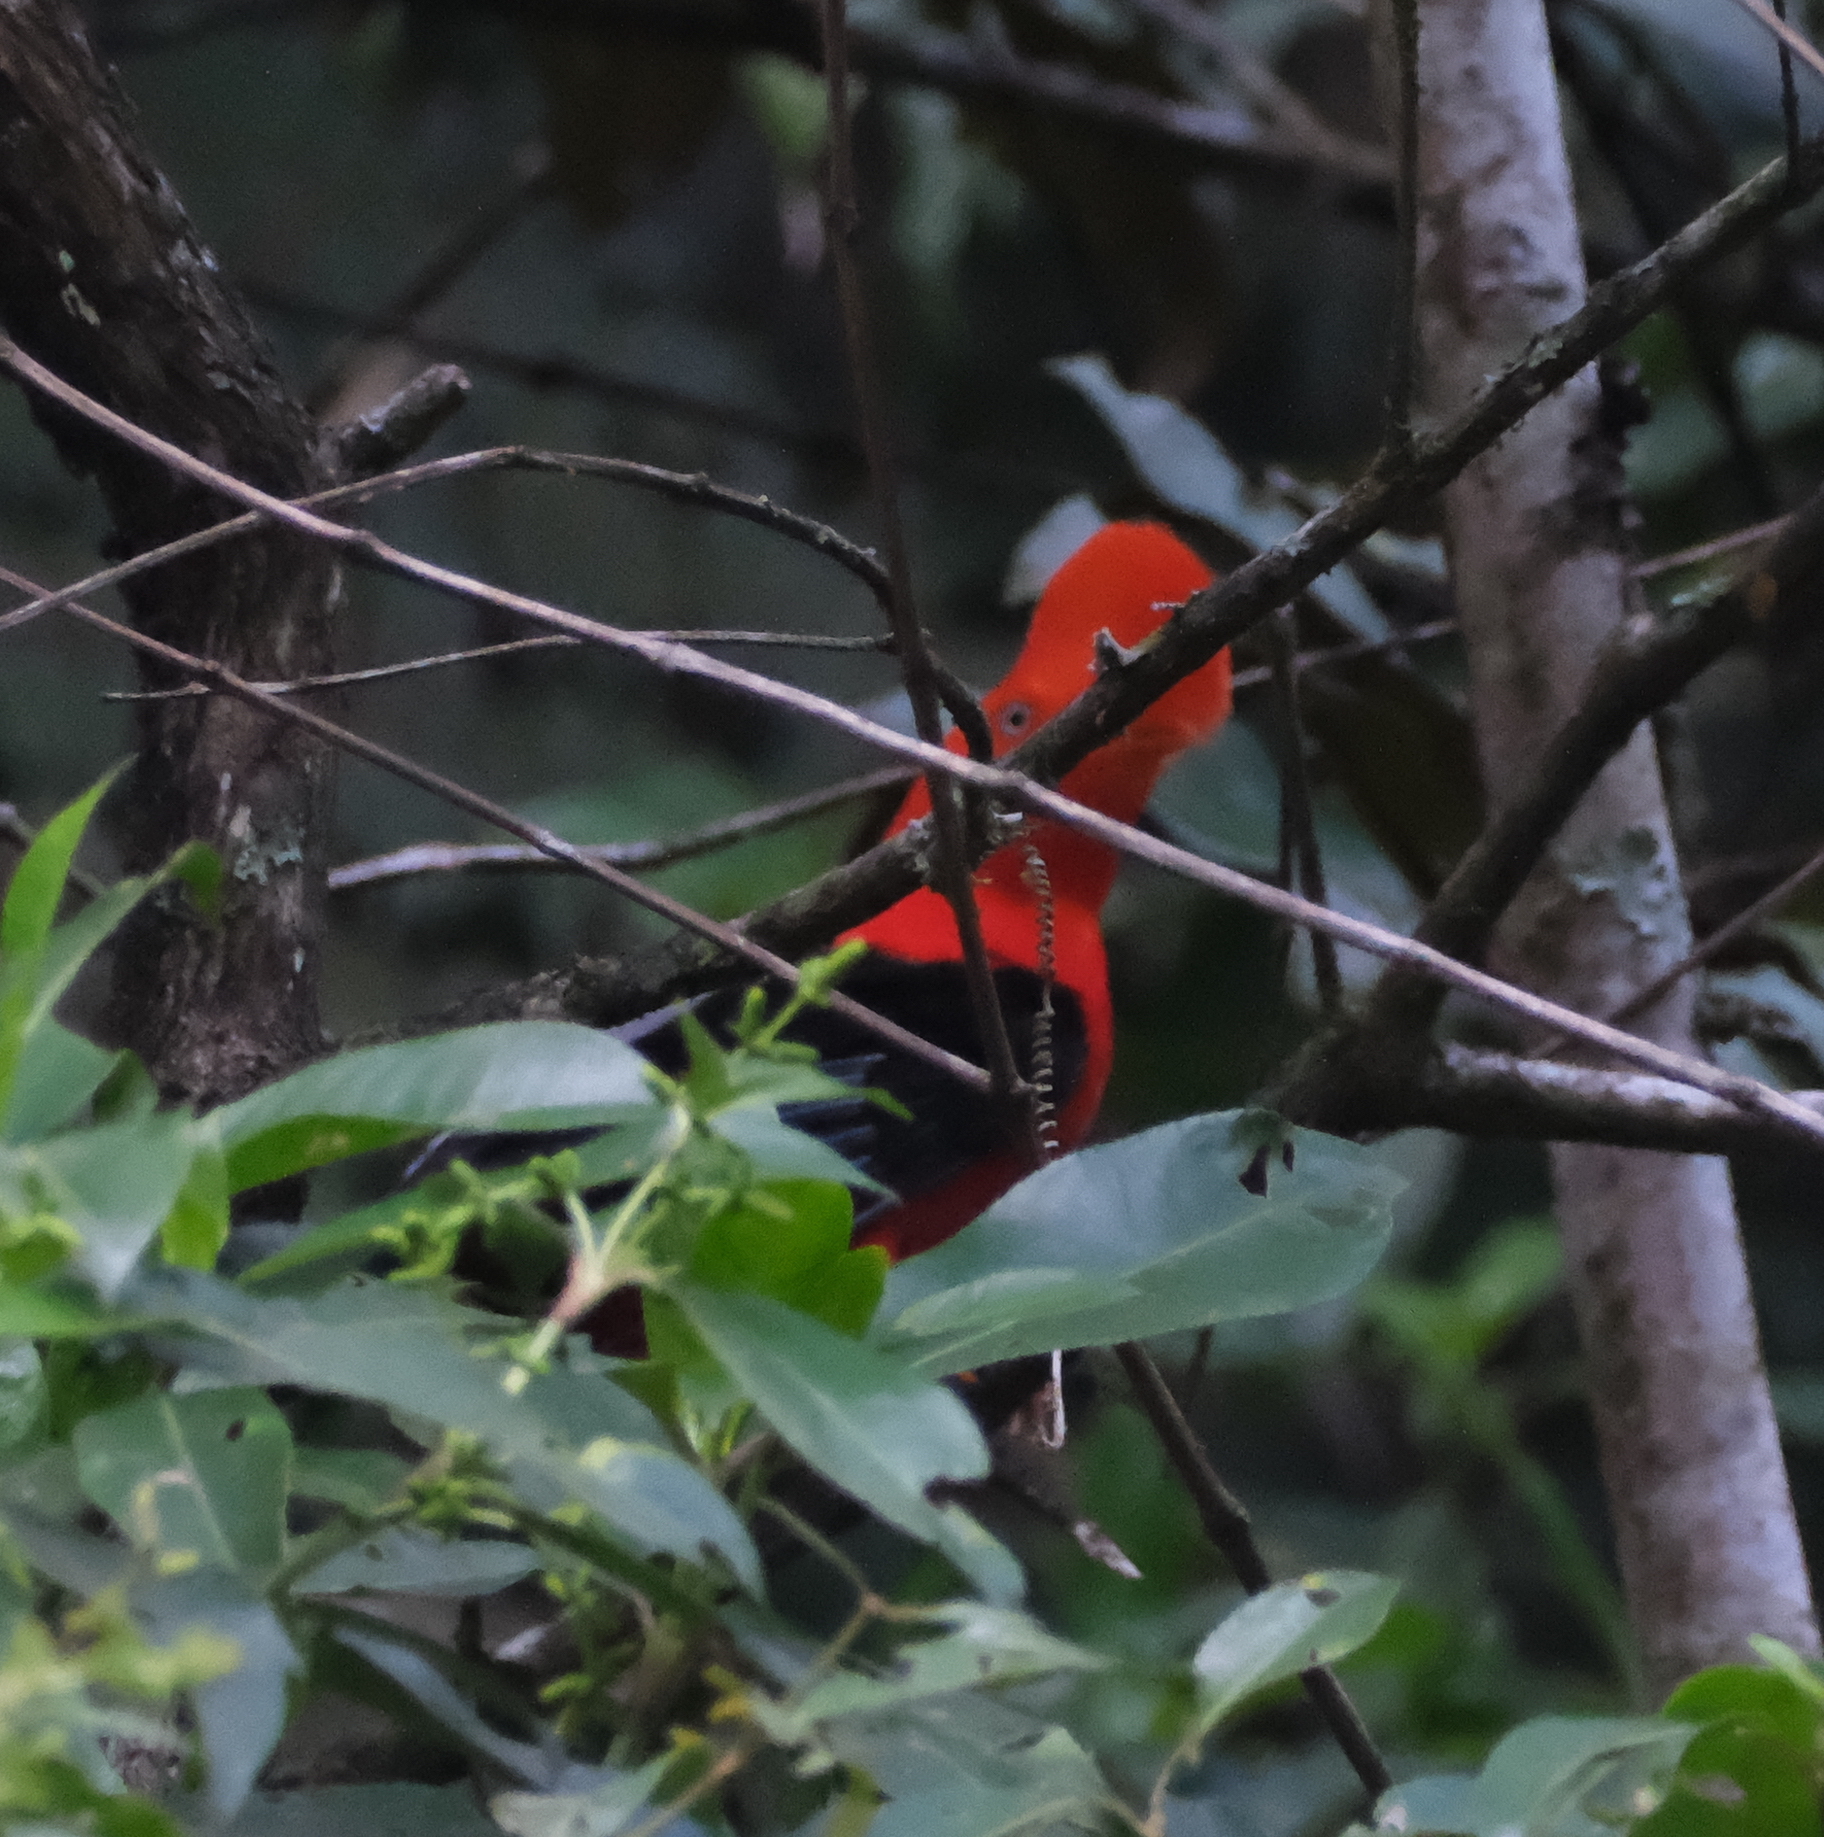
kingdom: Animalia
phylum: Chordata
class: Aves
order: Passeriformes
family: Cotingidae
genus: Rupicola
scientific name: Rupicola peruvianus
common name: Andean cock-of-the-rock
